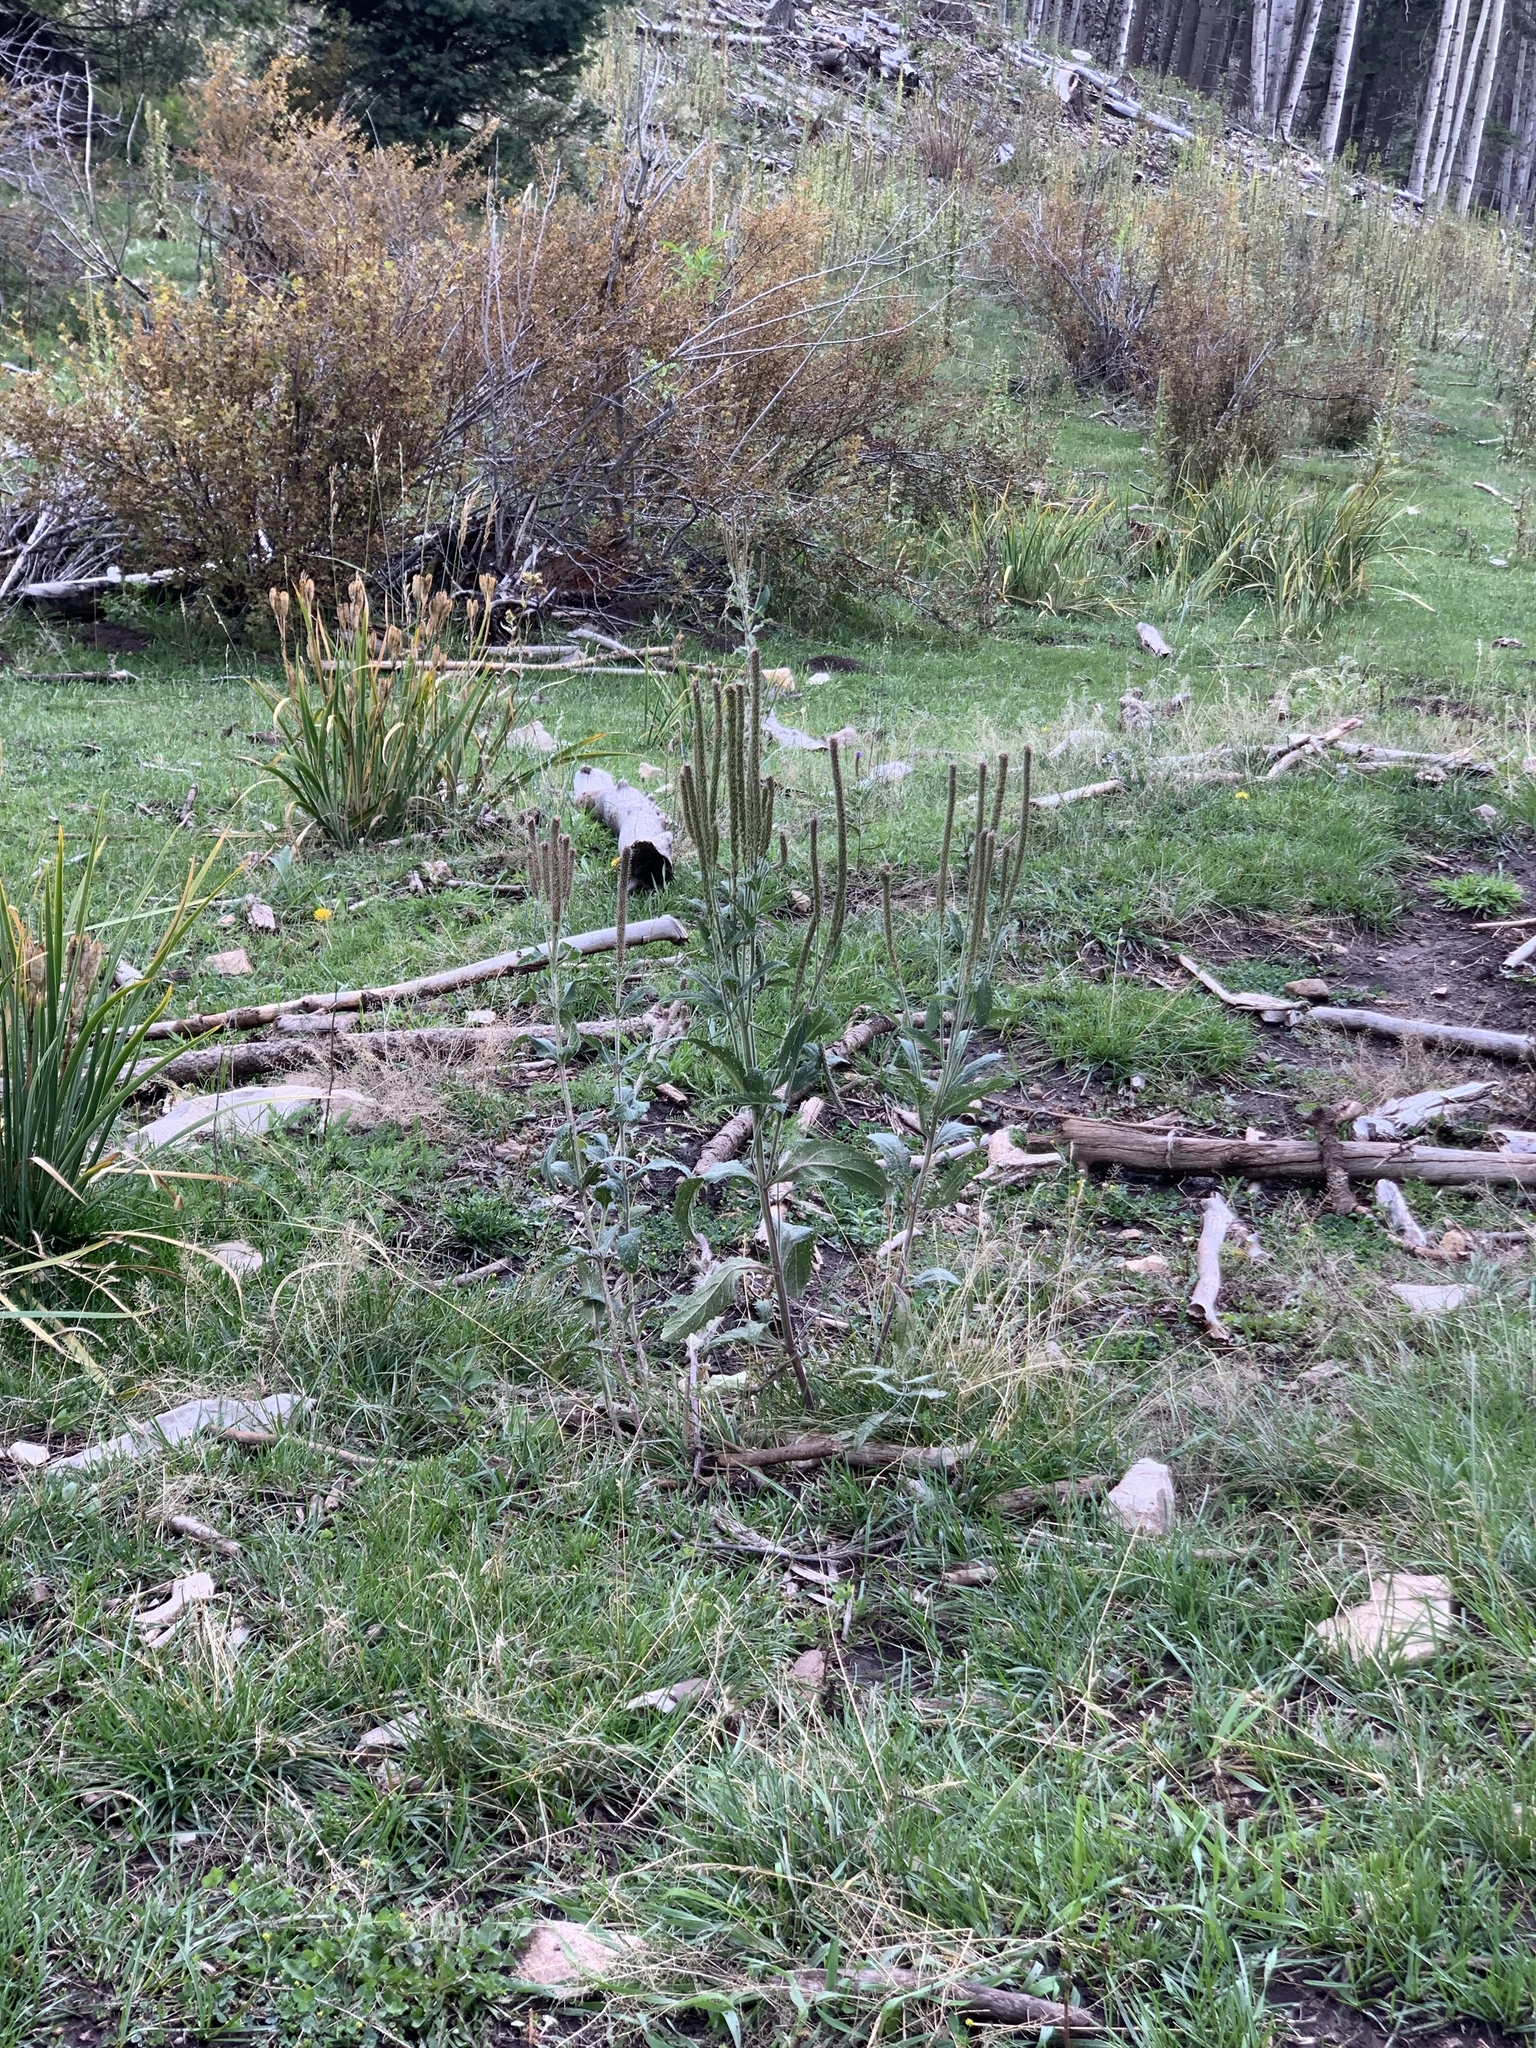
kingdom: Plantae
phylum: Tracheophyta
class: Magnoliopsida
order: Lamiales
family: Verbenaceae
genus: Verbena
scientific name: Verbena macdougalii
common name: New mexico vervain
